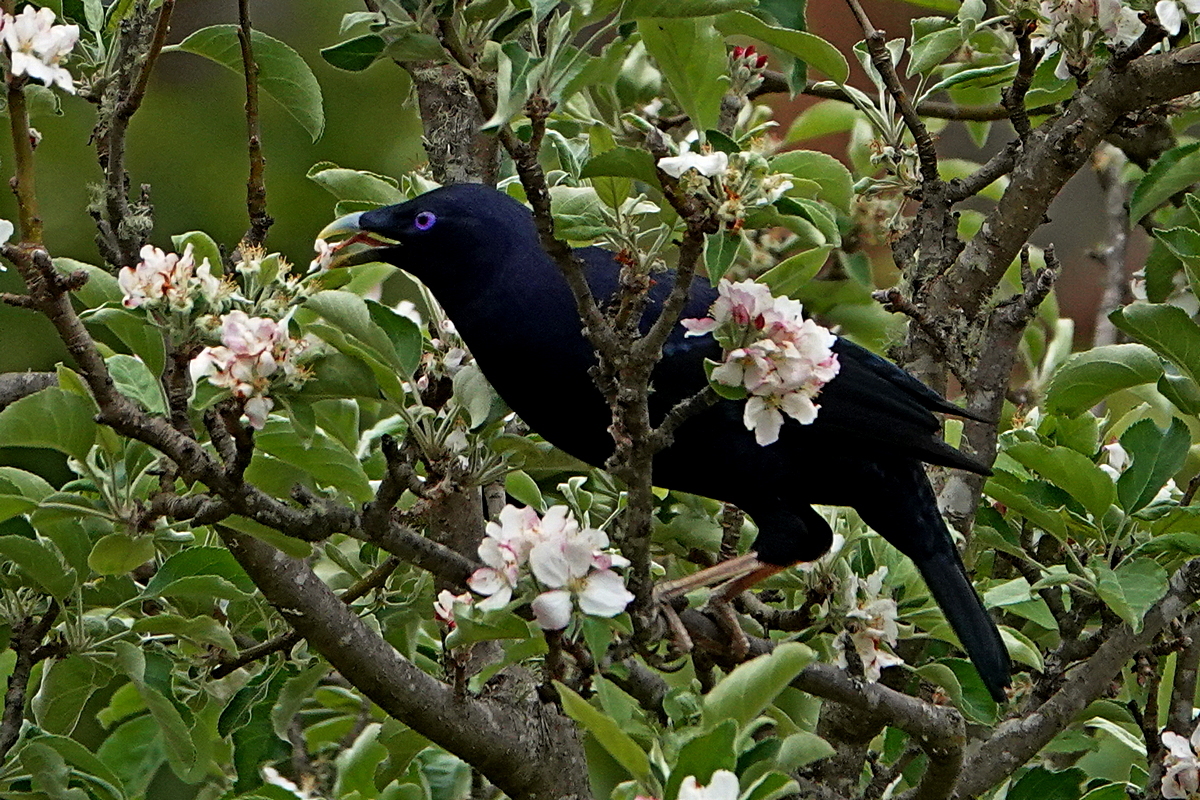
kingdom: Animalia
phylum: Chordata
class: Aves
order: Passeriformes
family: Ptilonorhynchidae
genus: Ptilonorhynchus
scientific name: Ptilonorhynchus violaceus
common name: Satin bowerbird
